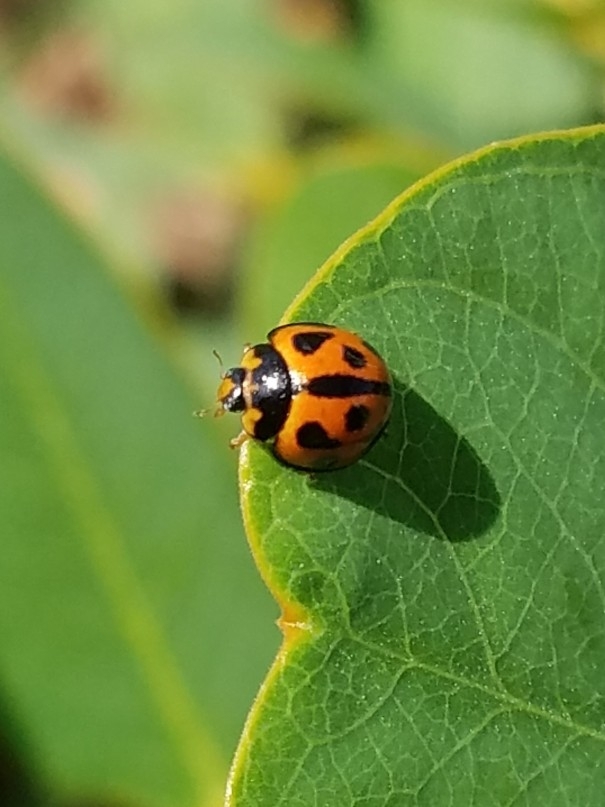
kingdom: Animalia
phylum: Arthropoda
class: Insecta
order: Coleoptera
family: Coccinellidae
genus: Coelophora
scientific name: Coelophora inaequalis
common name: Common australian lady beetle
